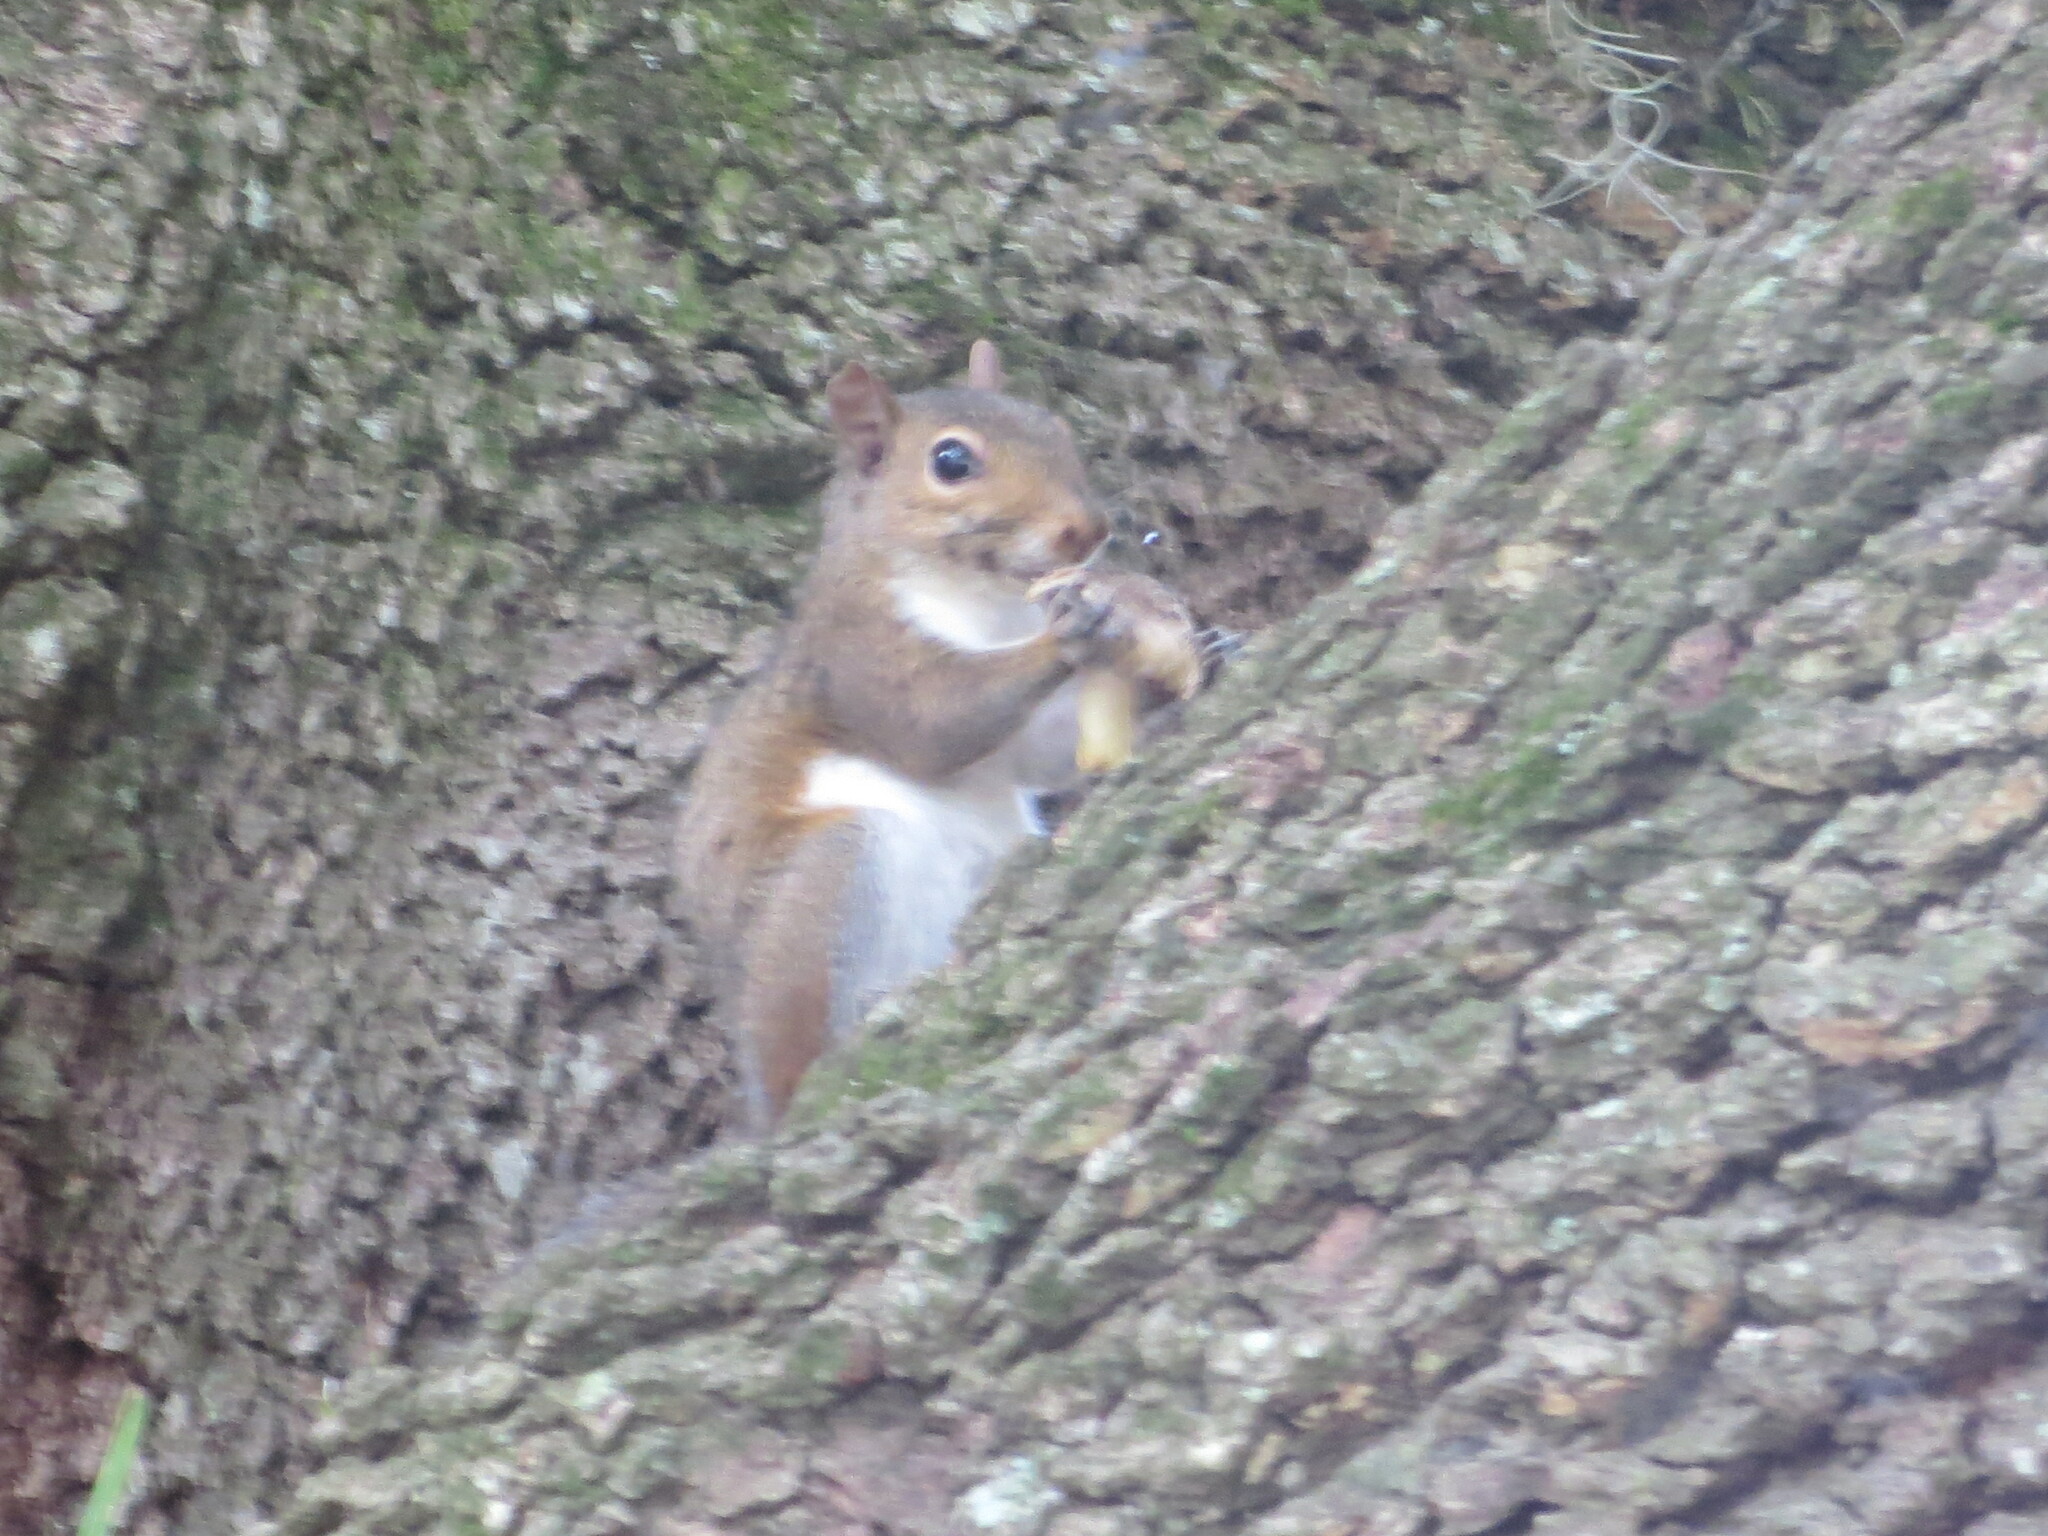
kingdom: Animalia
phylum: Chordata
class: Mammalia
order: Rodentia
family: Sciuridae
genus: Sciurus
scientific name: Sciurus carolinensis
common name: Eastern gray squirrel
